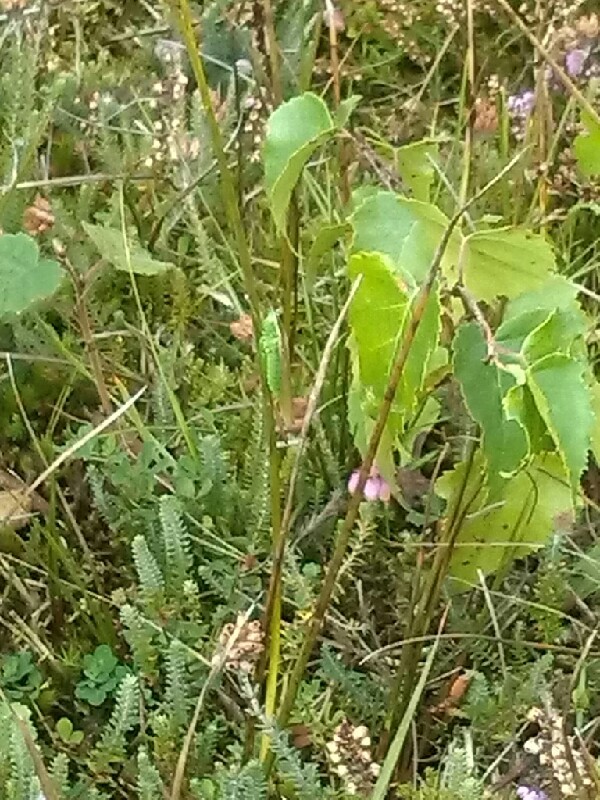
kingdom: Animalia
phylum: Arthropoda
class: Insecta
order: Orthoptera
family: Tettigoniidae
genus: Conocephalus
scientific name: Conocephalus fuscus
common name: Long-winged conehead
